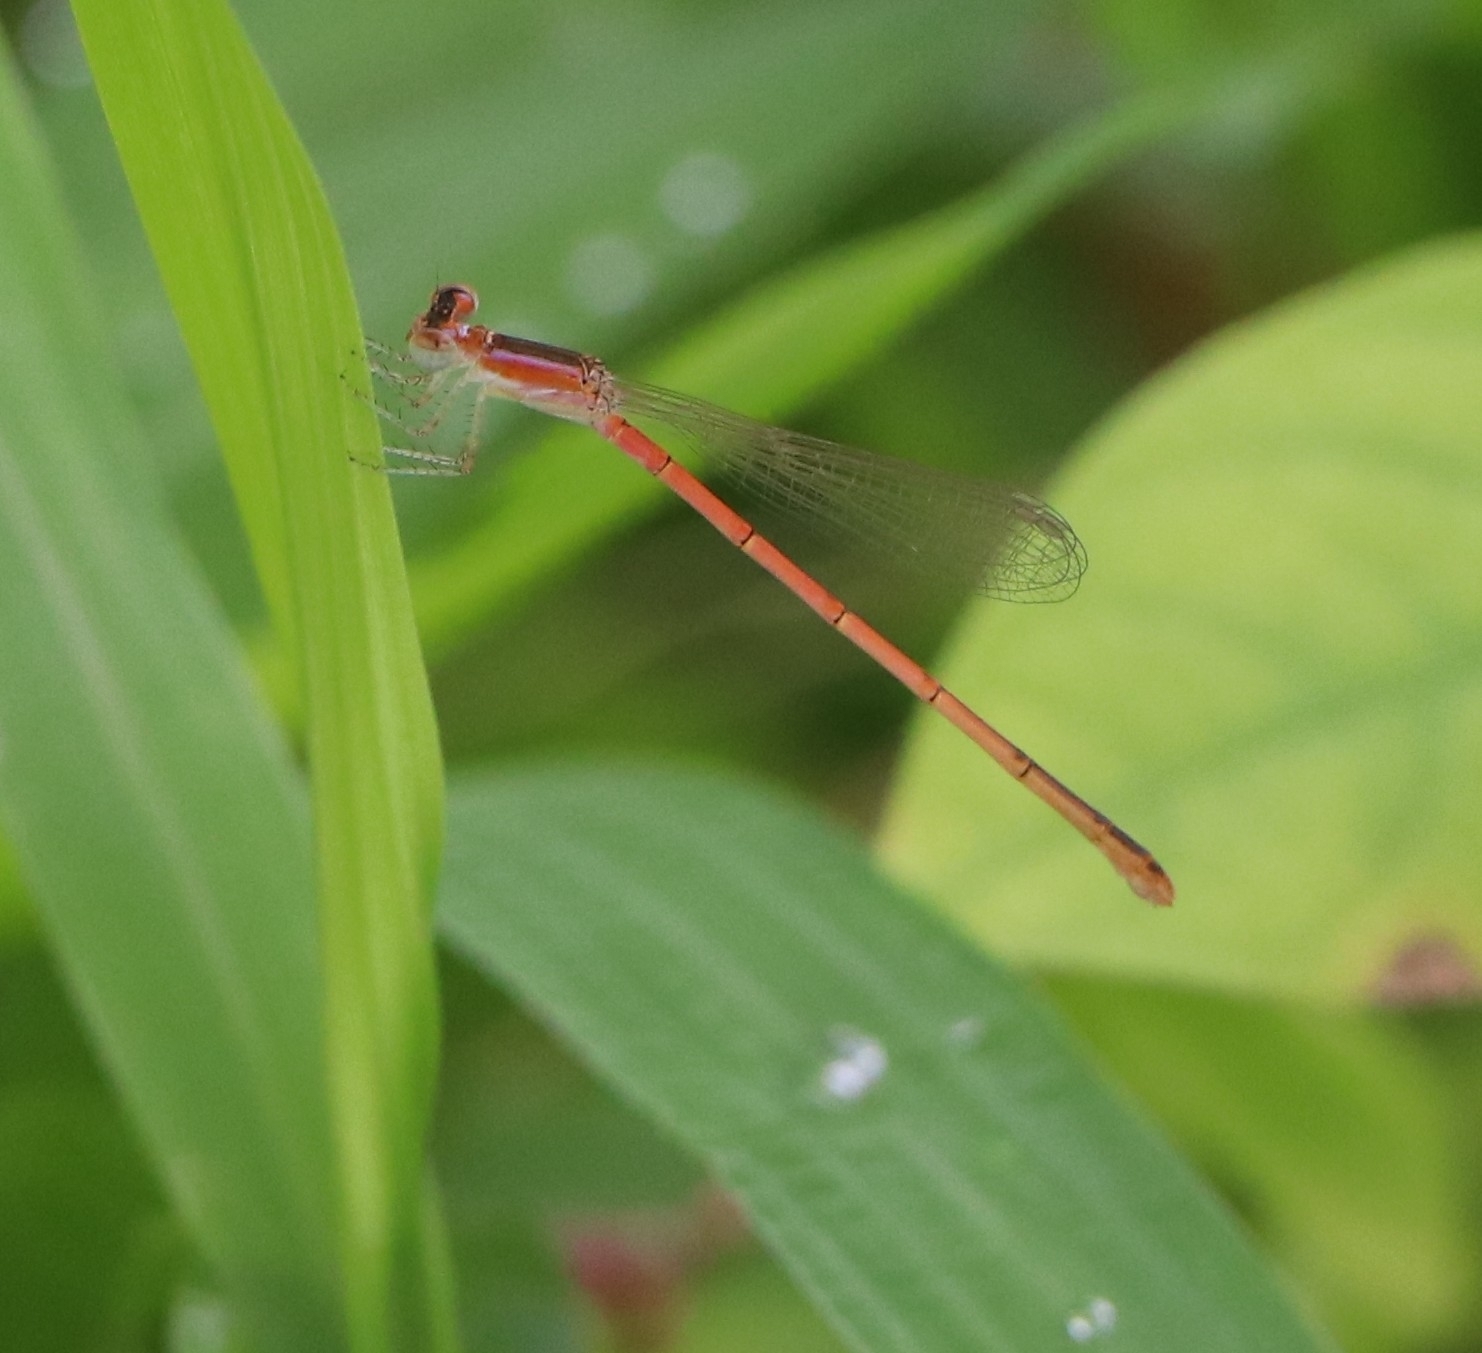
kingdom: Animalia
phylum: Arthropoda
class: Insecta
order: Odonata
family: Coenagrionidae
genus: Agriocnemis
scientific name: Agriocnemis pygmaea
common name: Pygmy wisp
